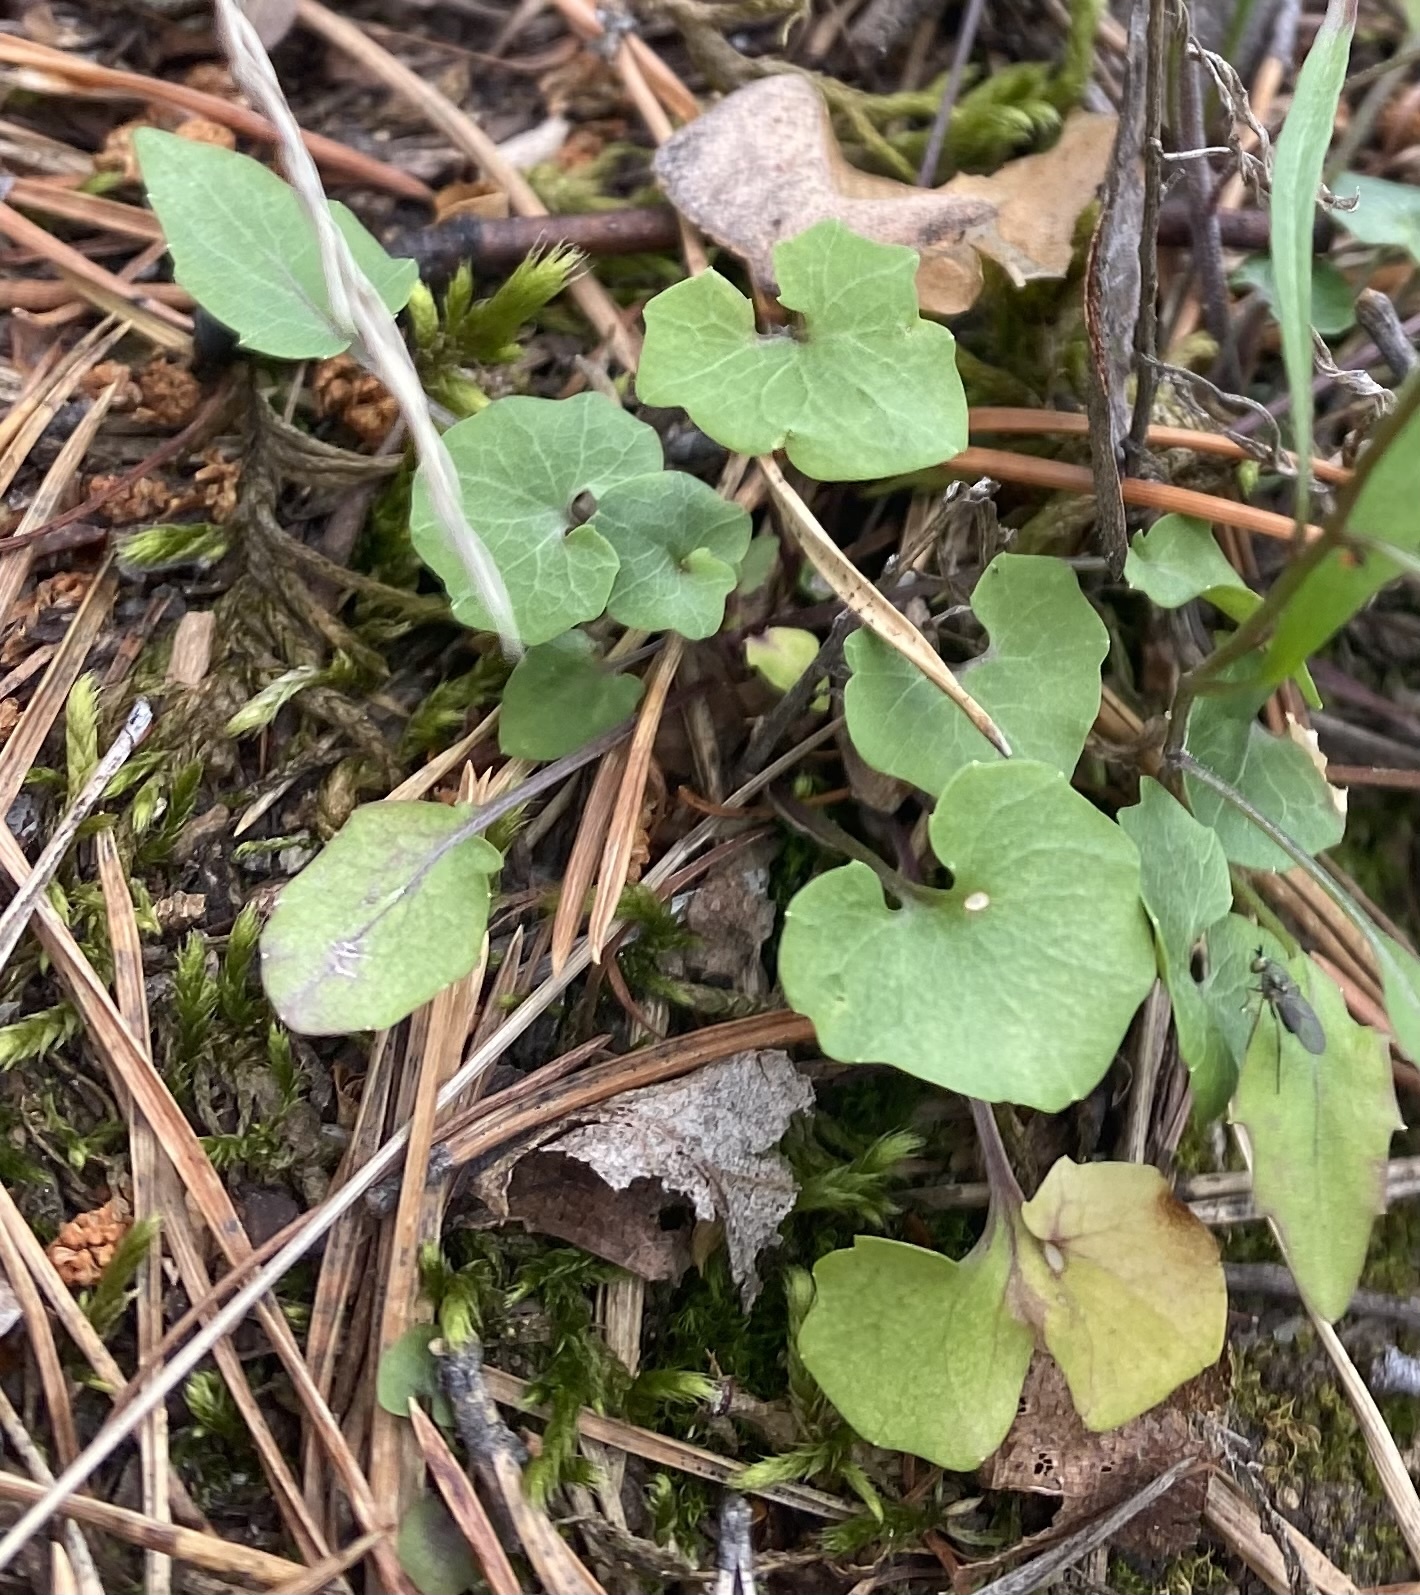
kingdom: Plantae
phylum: Tracheophyta
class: Magnoliopsida
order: Asterales
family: Campanulaceae
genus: Campanula
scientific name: Campanula rotundifolia
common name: Harebell
